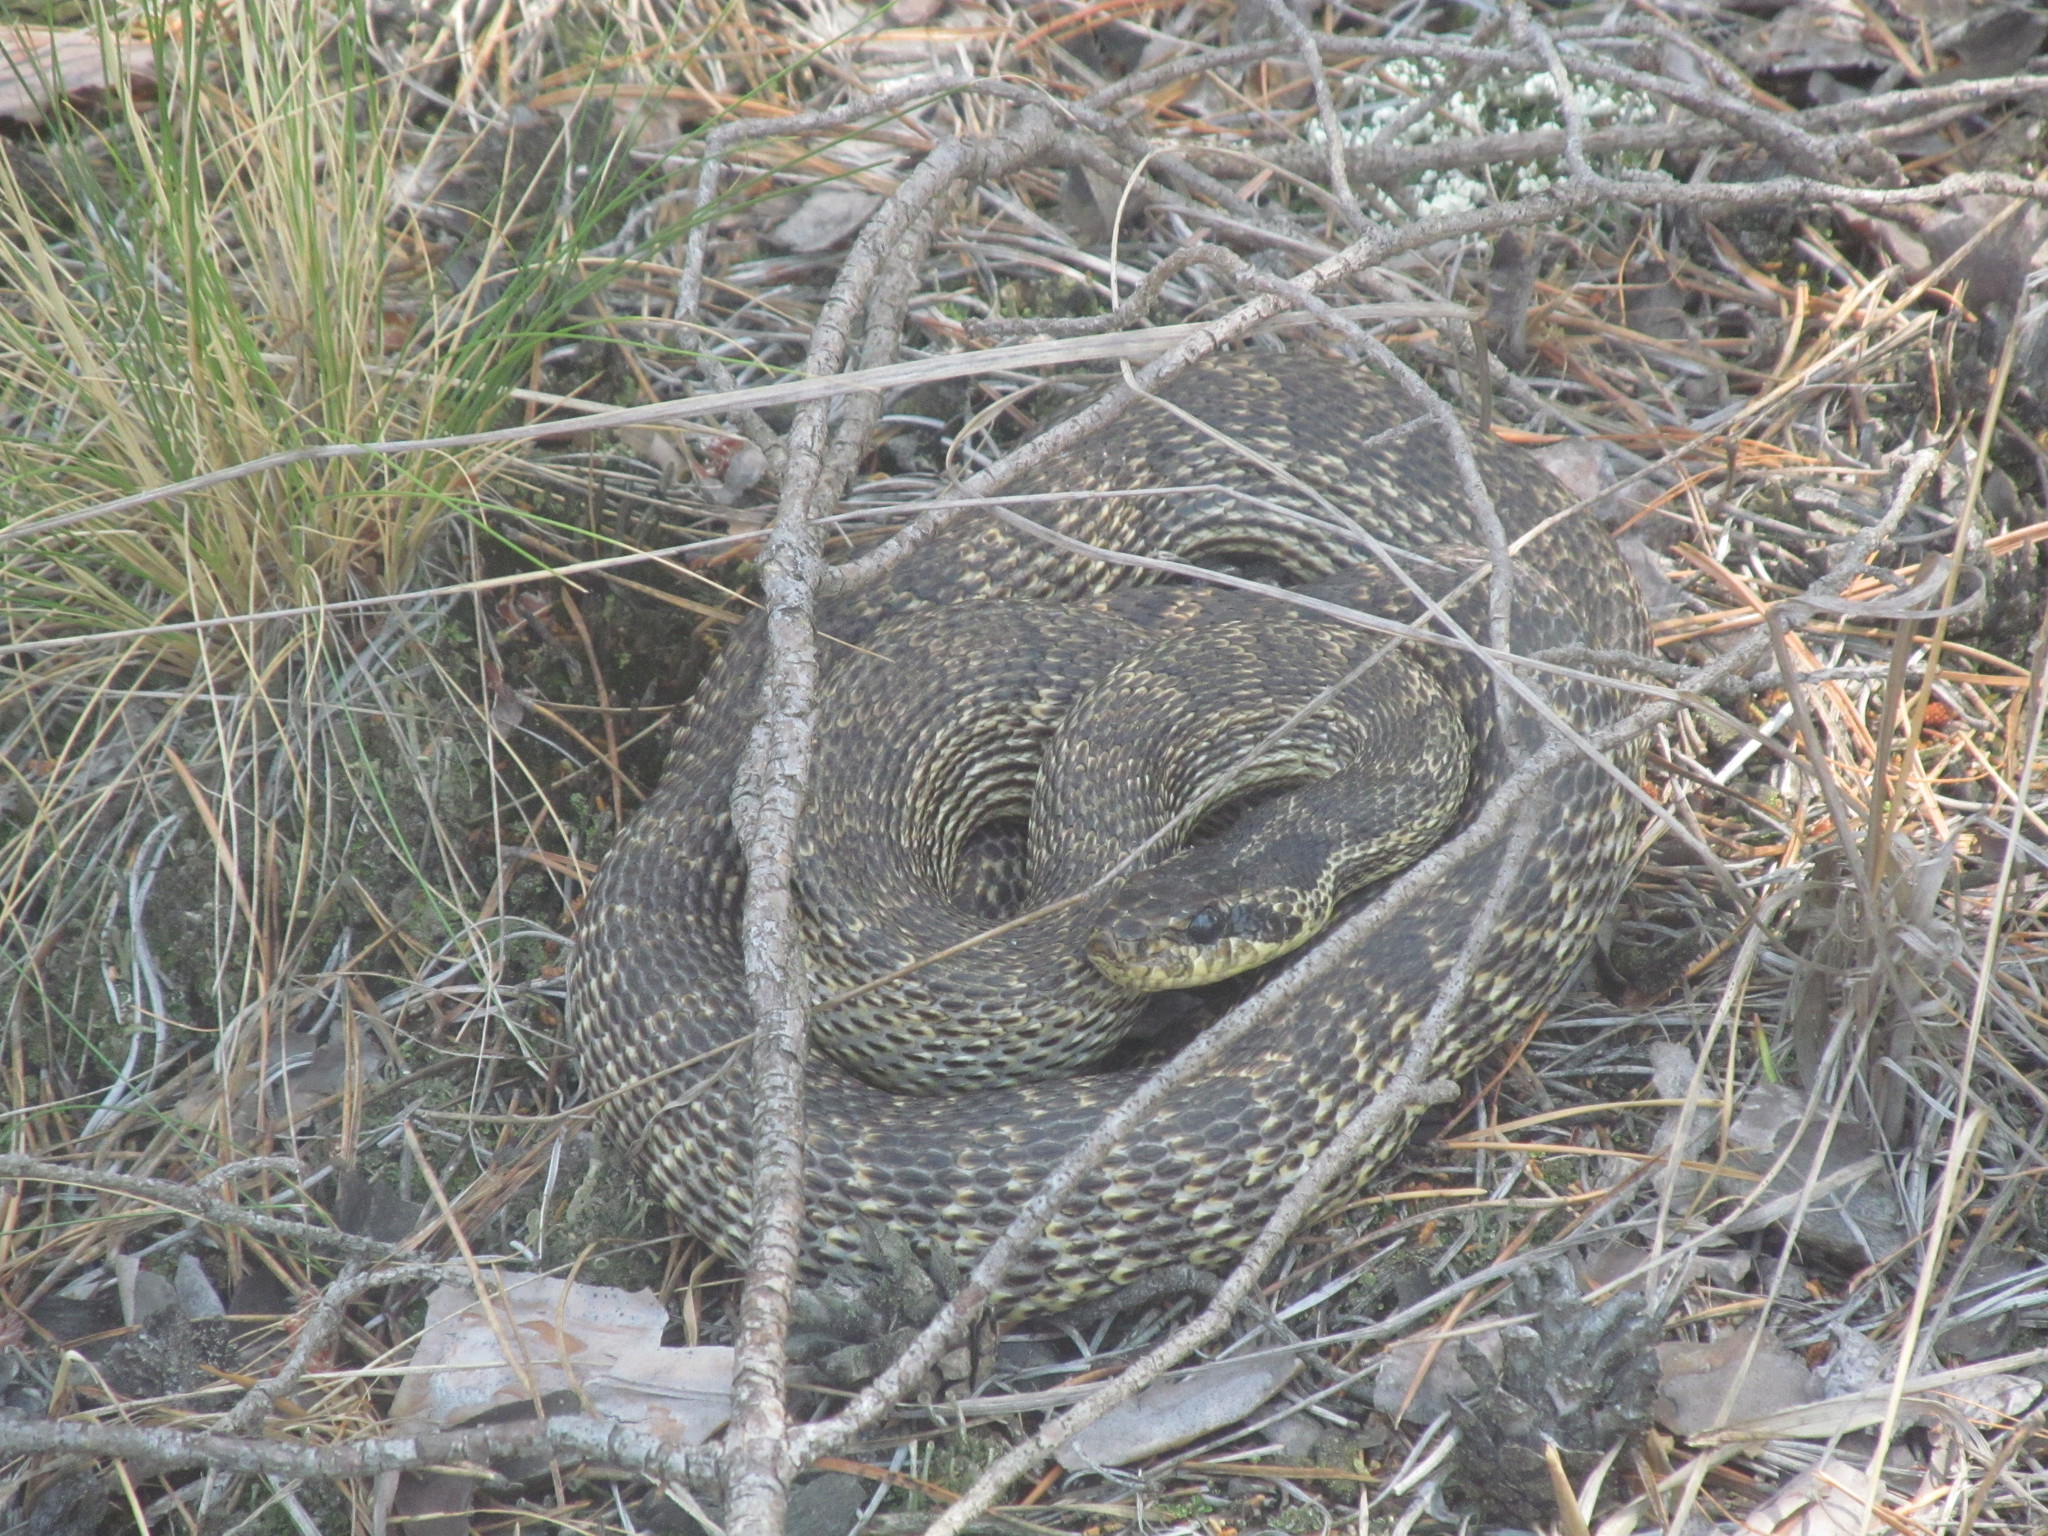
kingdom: Animalia
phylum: Chordata
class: Squamata
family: Colubridae
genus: Elaphe
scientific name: Elaphe sauromates
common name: Eastern four-lined ratsnake
